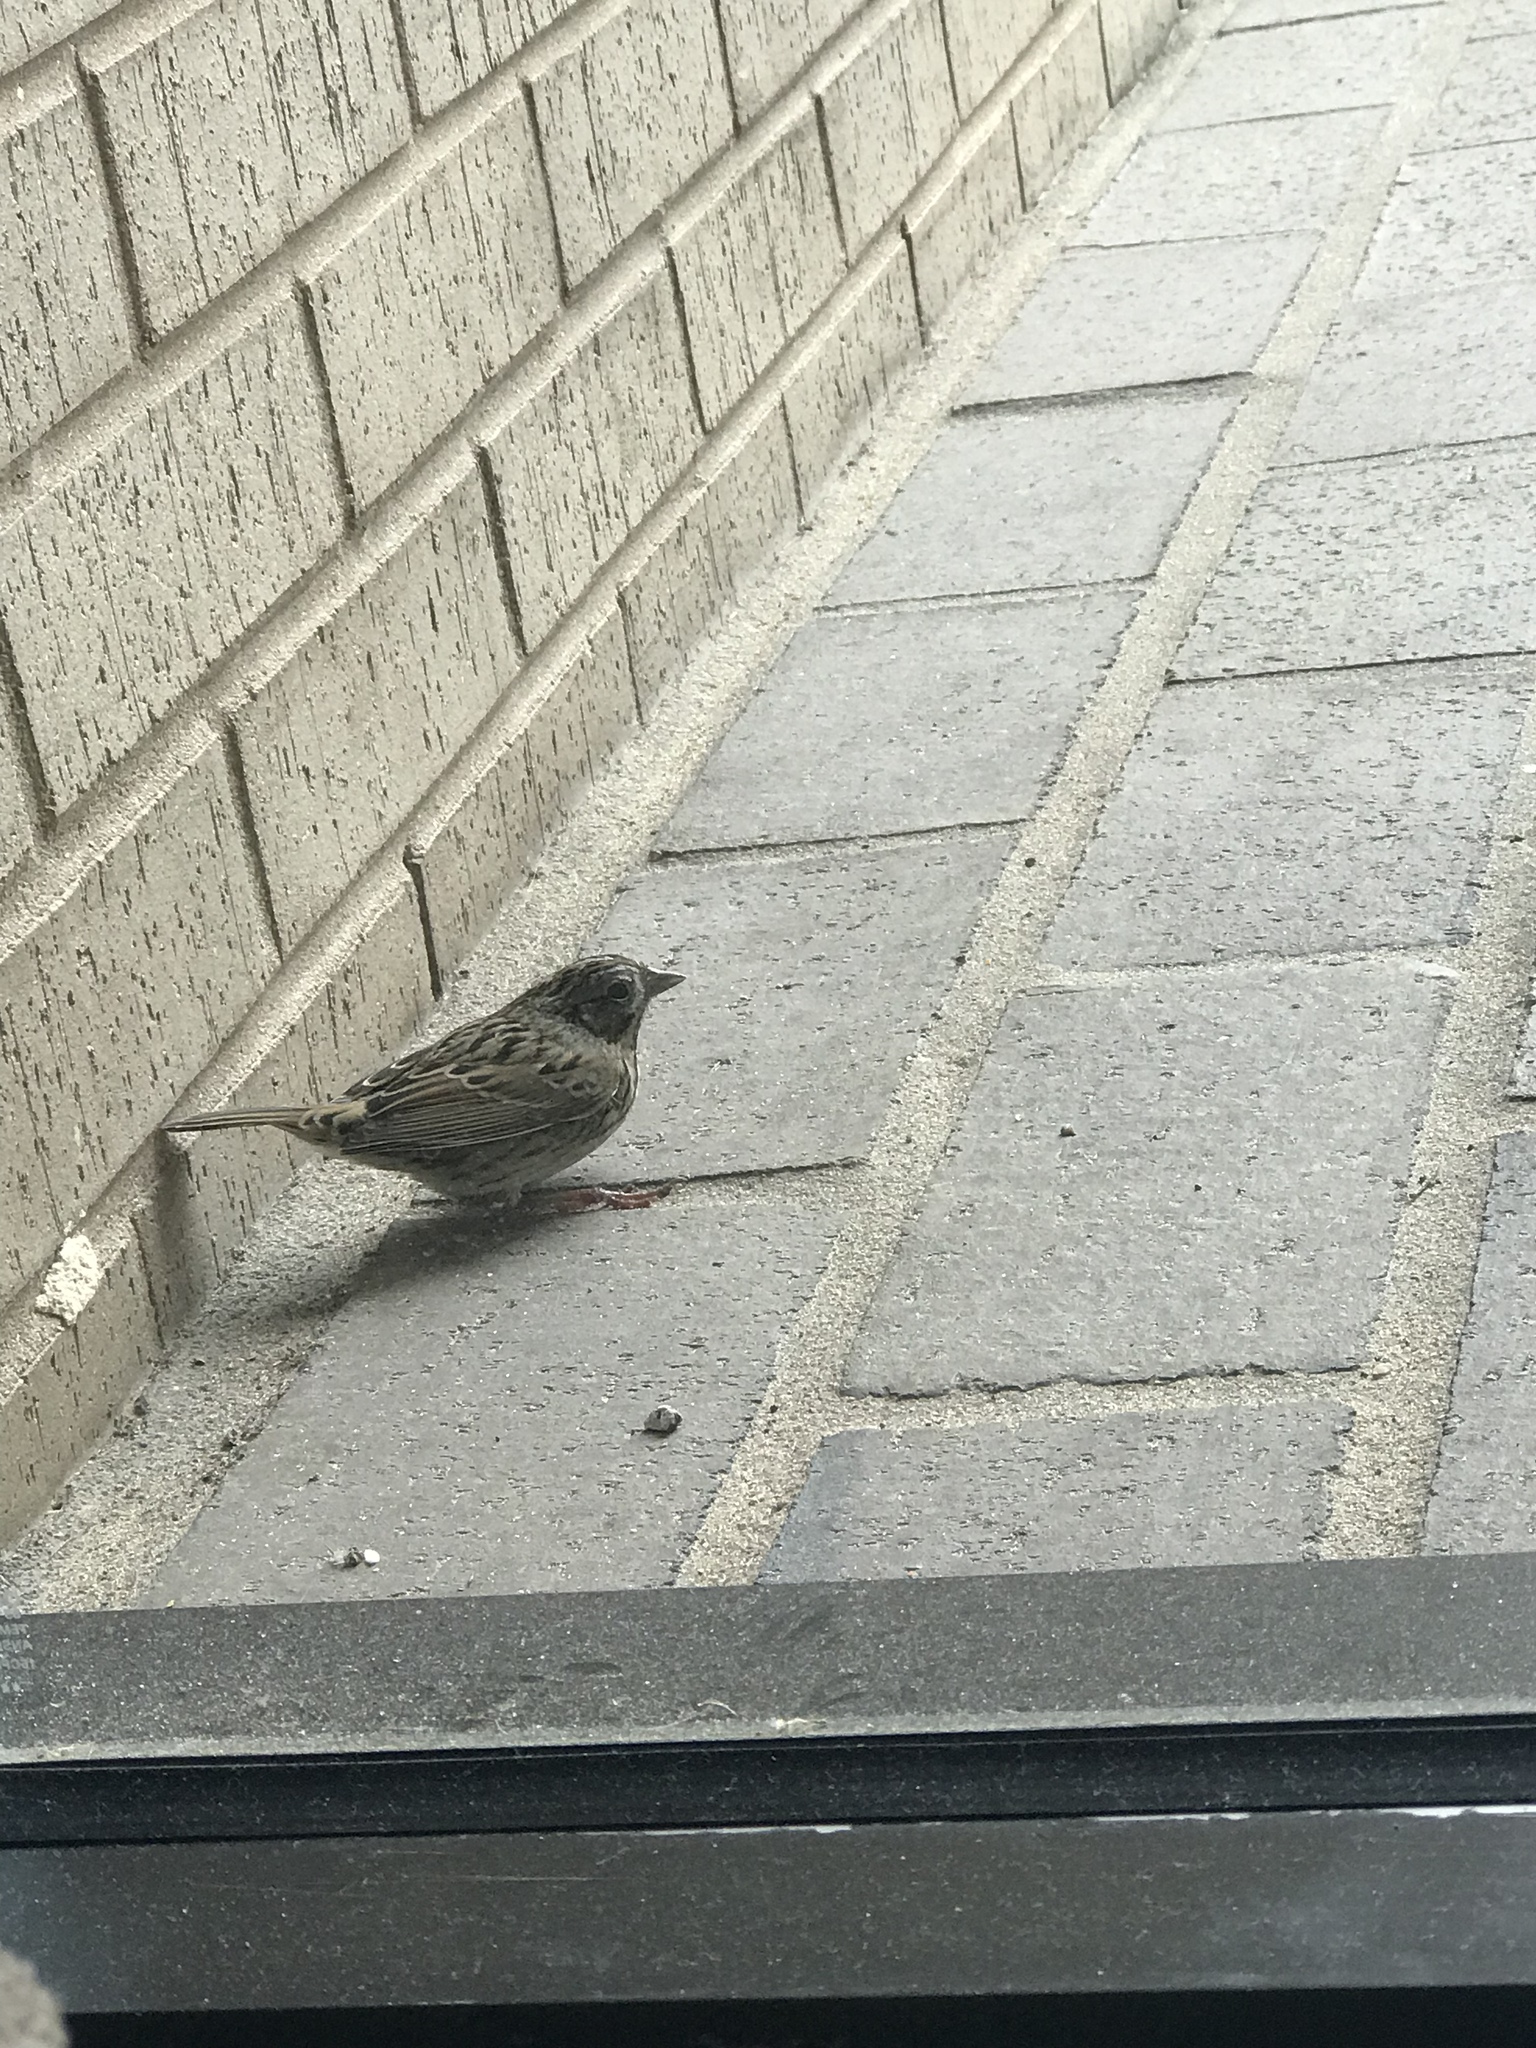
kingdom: Animalia
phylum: Chordata
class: Aves
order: Passeriformes
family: Passerellidae
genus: Melospiza
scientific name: Melospiza lincolnii
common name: Lincoln's sparrow
